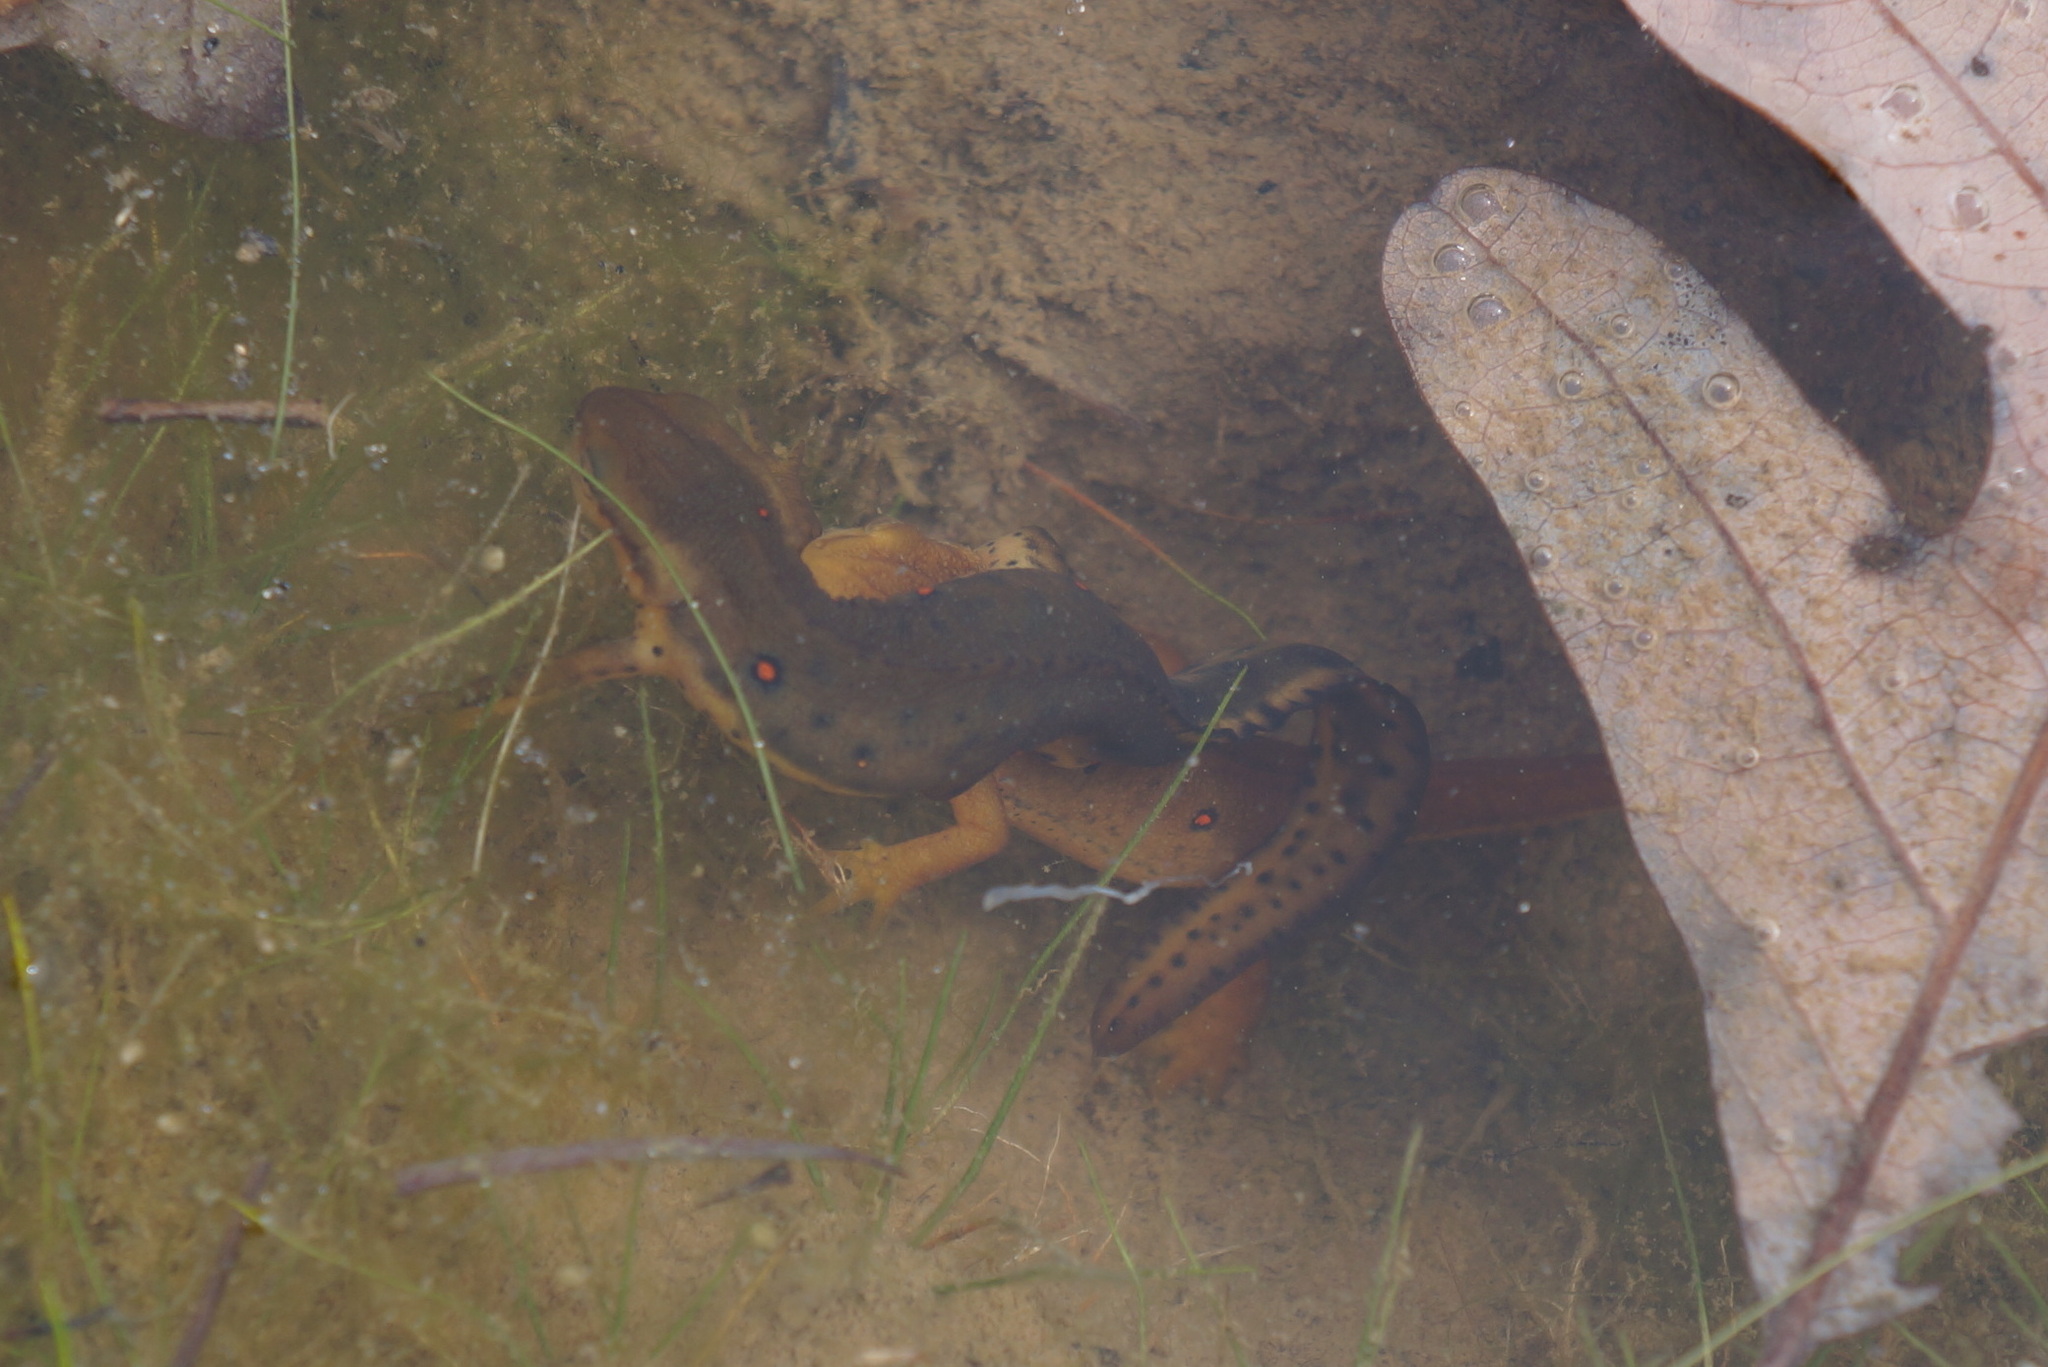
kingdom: Animalia
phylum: Chordata
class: Amphibia
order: Caudata
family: Salamandridae
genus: Notophthalmus
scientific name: Notophthalmus viridescens
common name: Eastern newt
